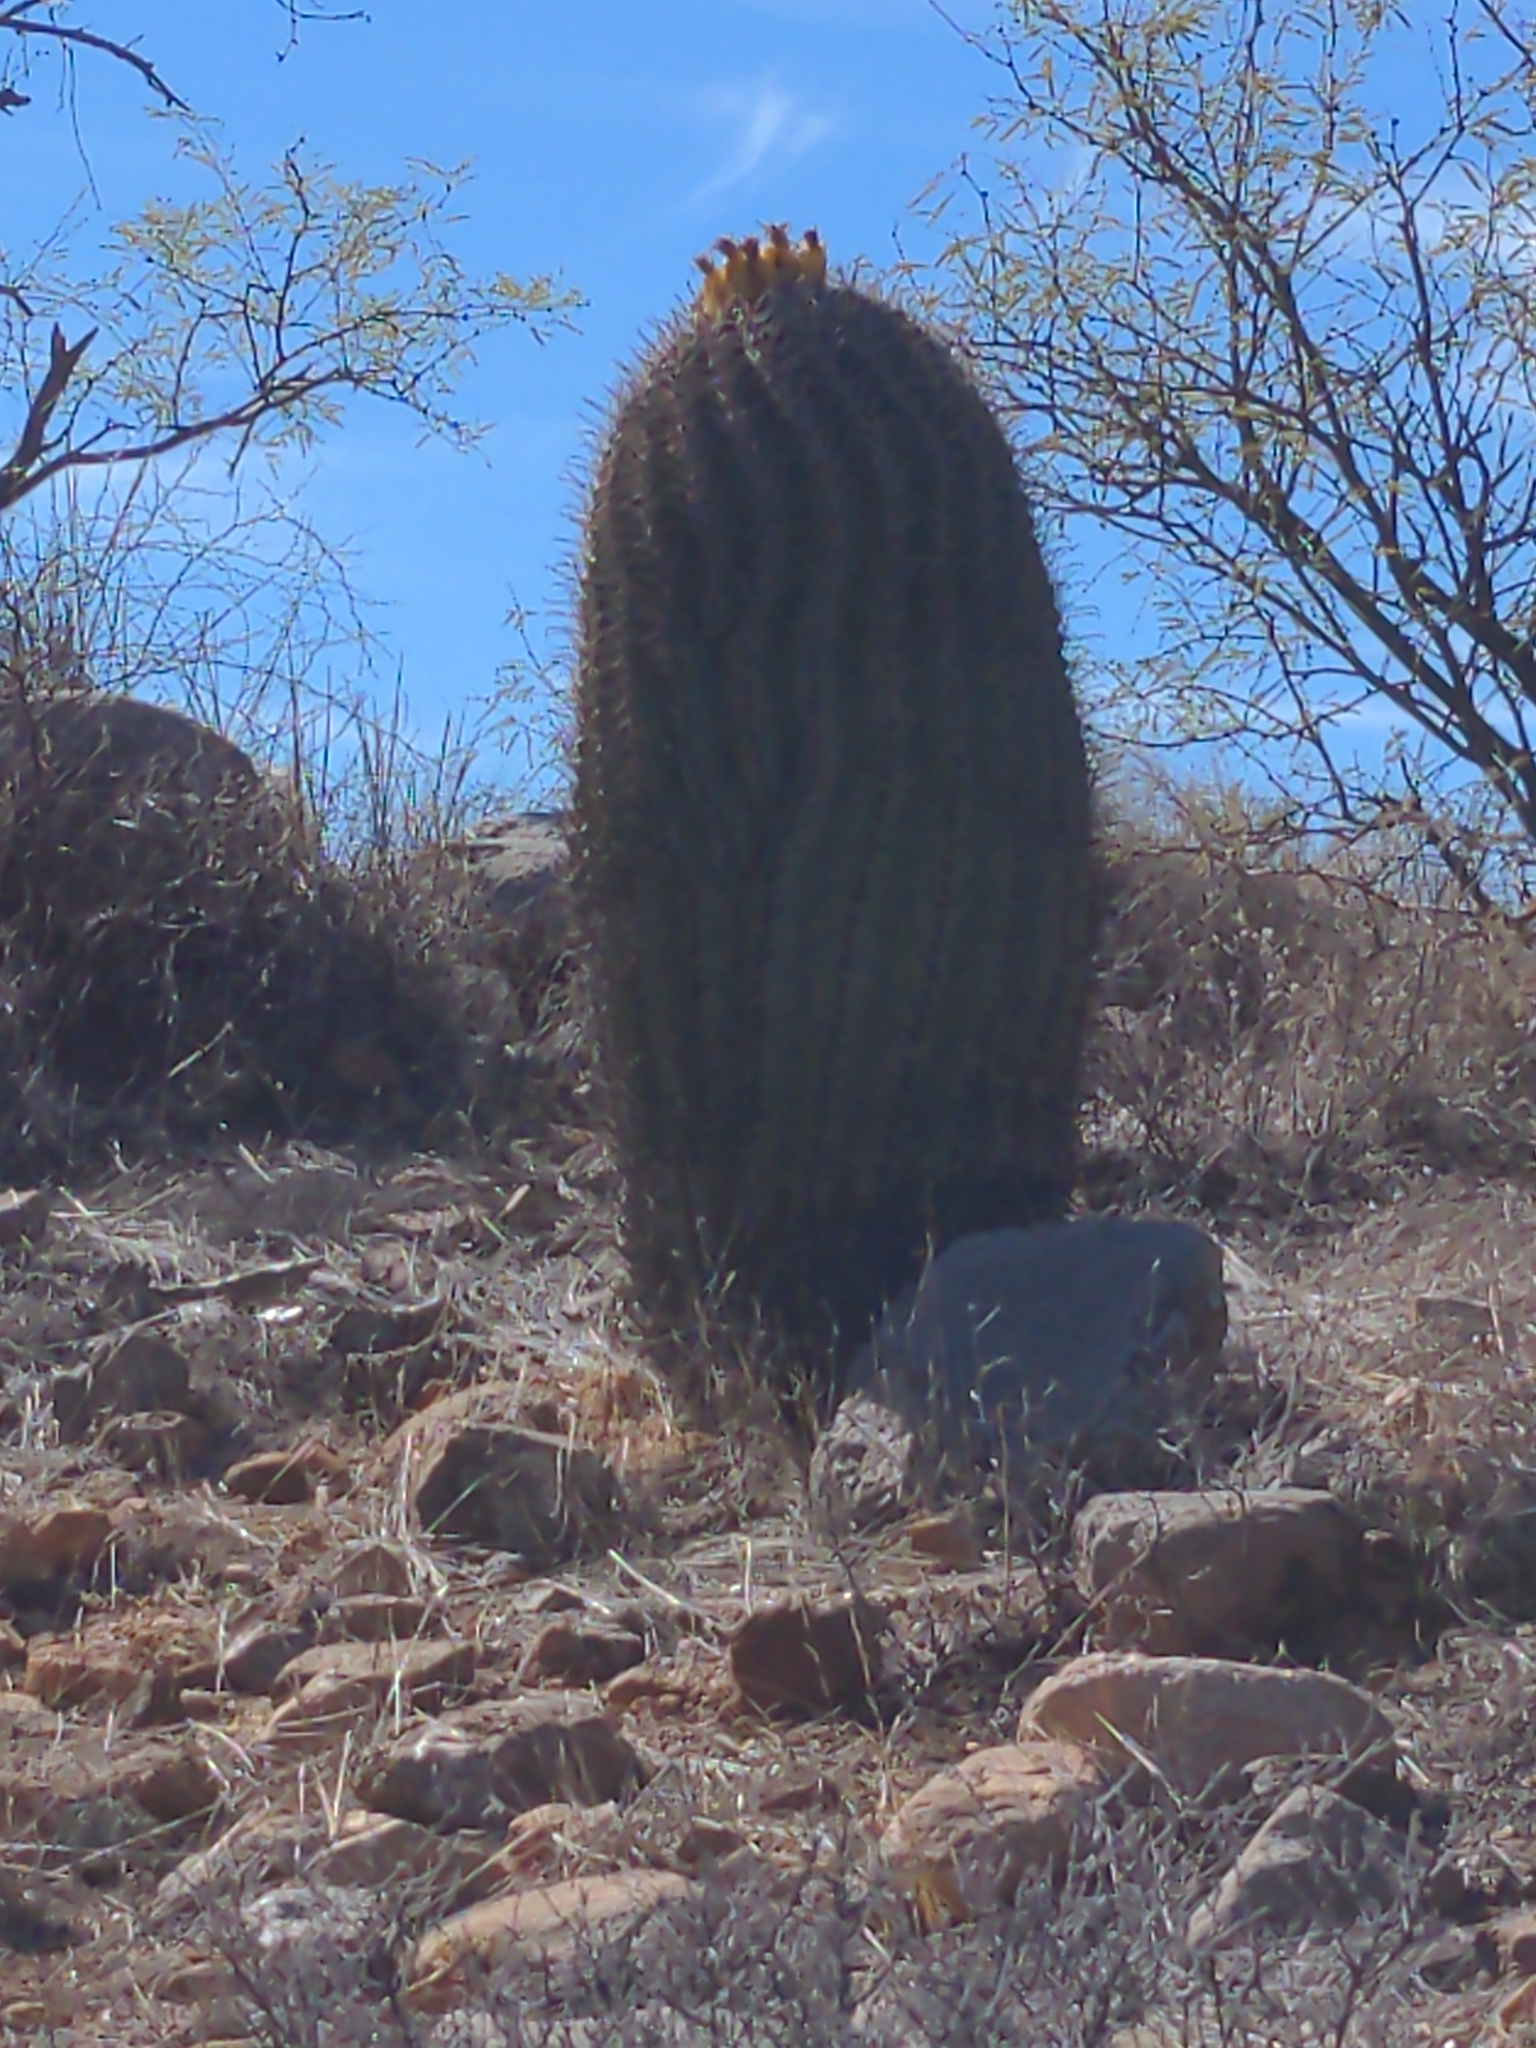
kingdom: Plantae
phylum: Tracheophyta
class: Magnoliopsida
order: Caryophyllales
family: Cactaceae
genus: Ferocactus
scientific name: Ferocactus wislizeni
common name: Candy barrel cactus
